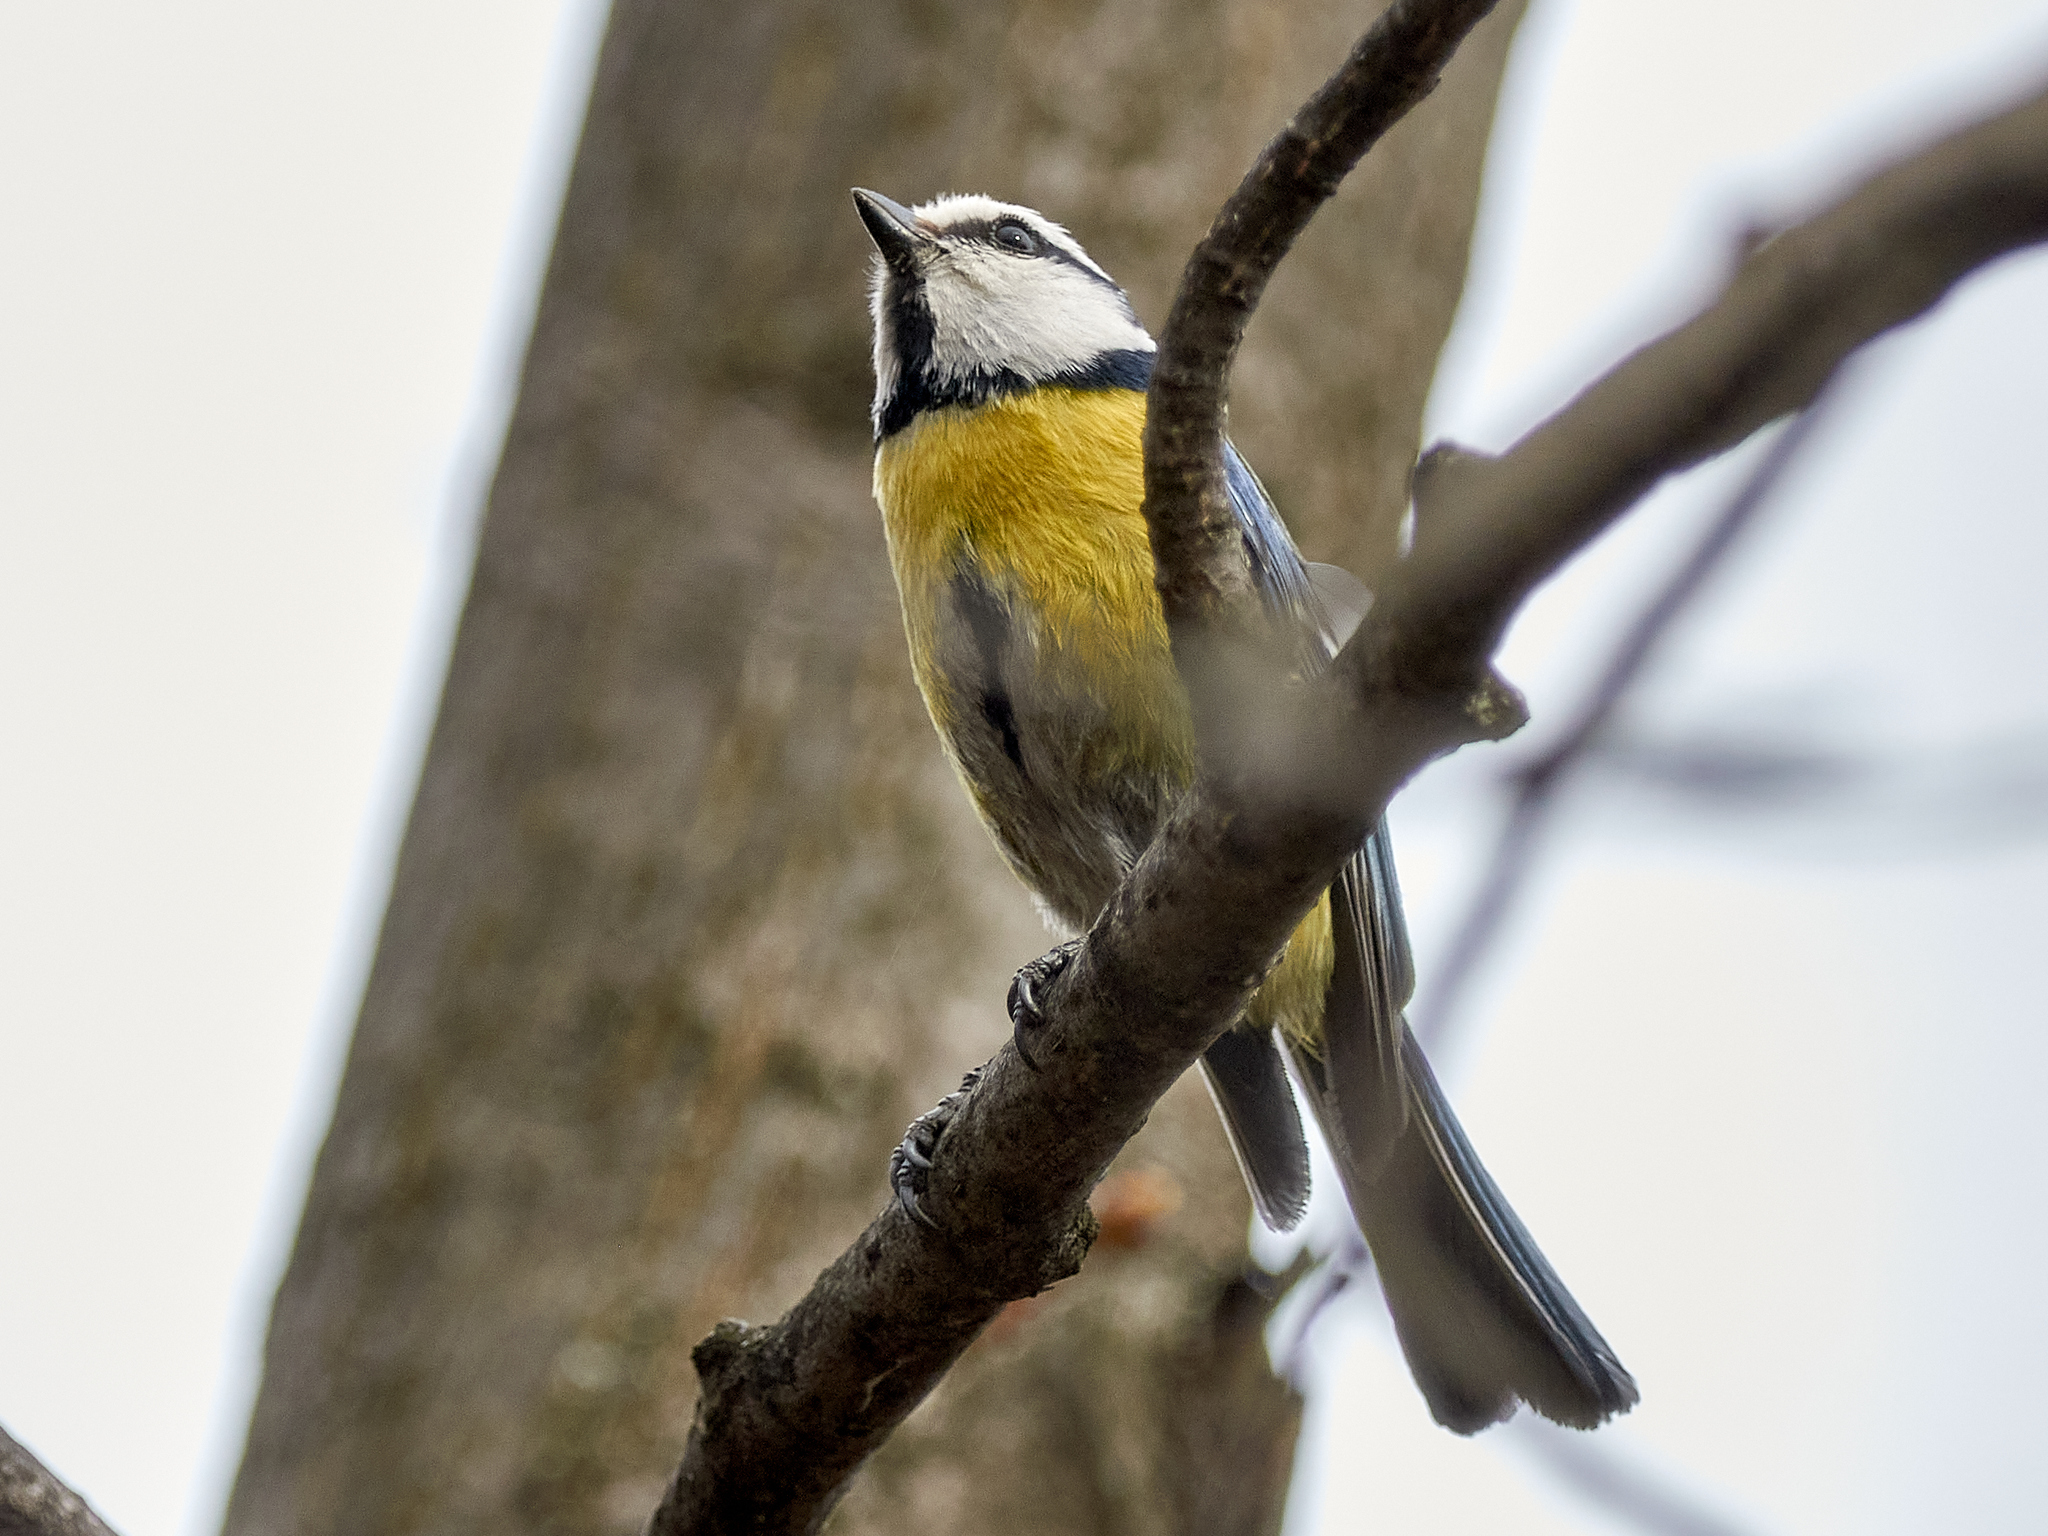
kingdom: Animalia
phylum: Chordata
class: Aves
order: Passeriformes
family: Paridae
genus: Cyanistes
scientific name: Cyanistes caeruleus
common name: Eurasian blue tit
